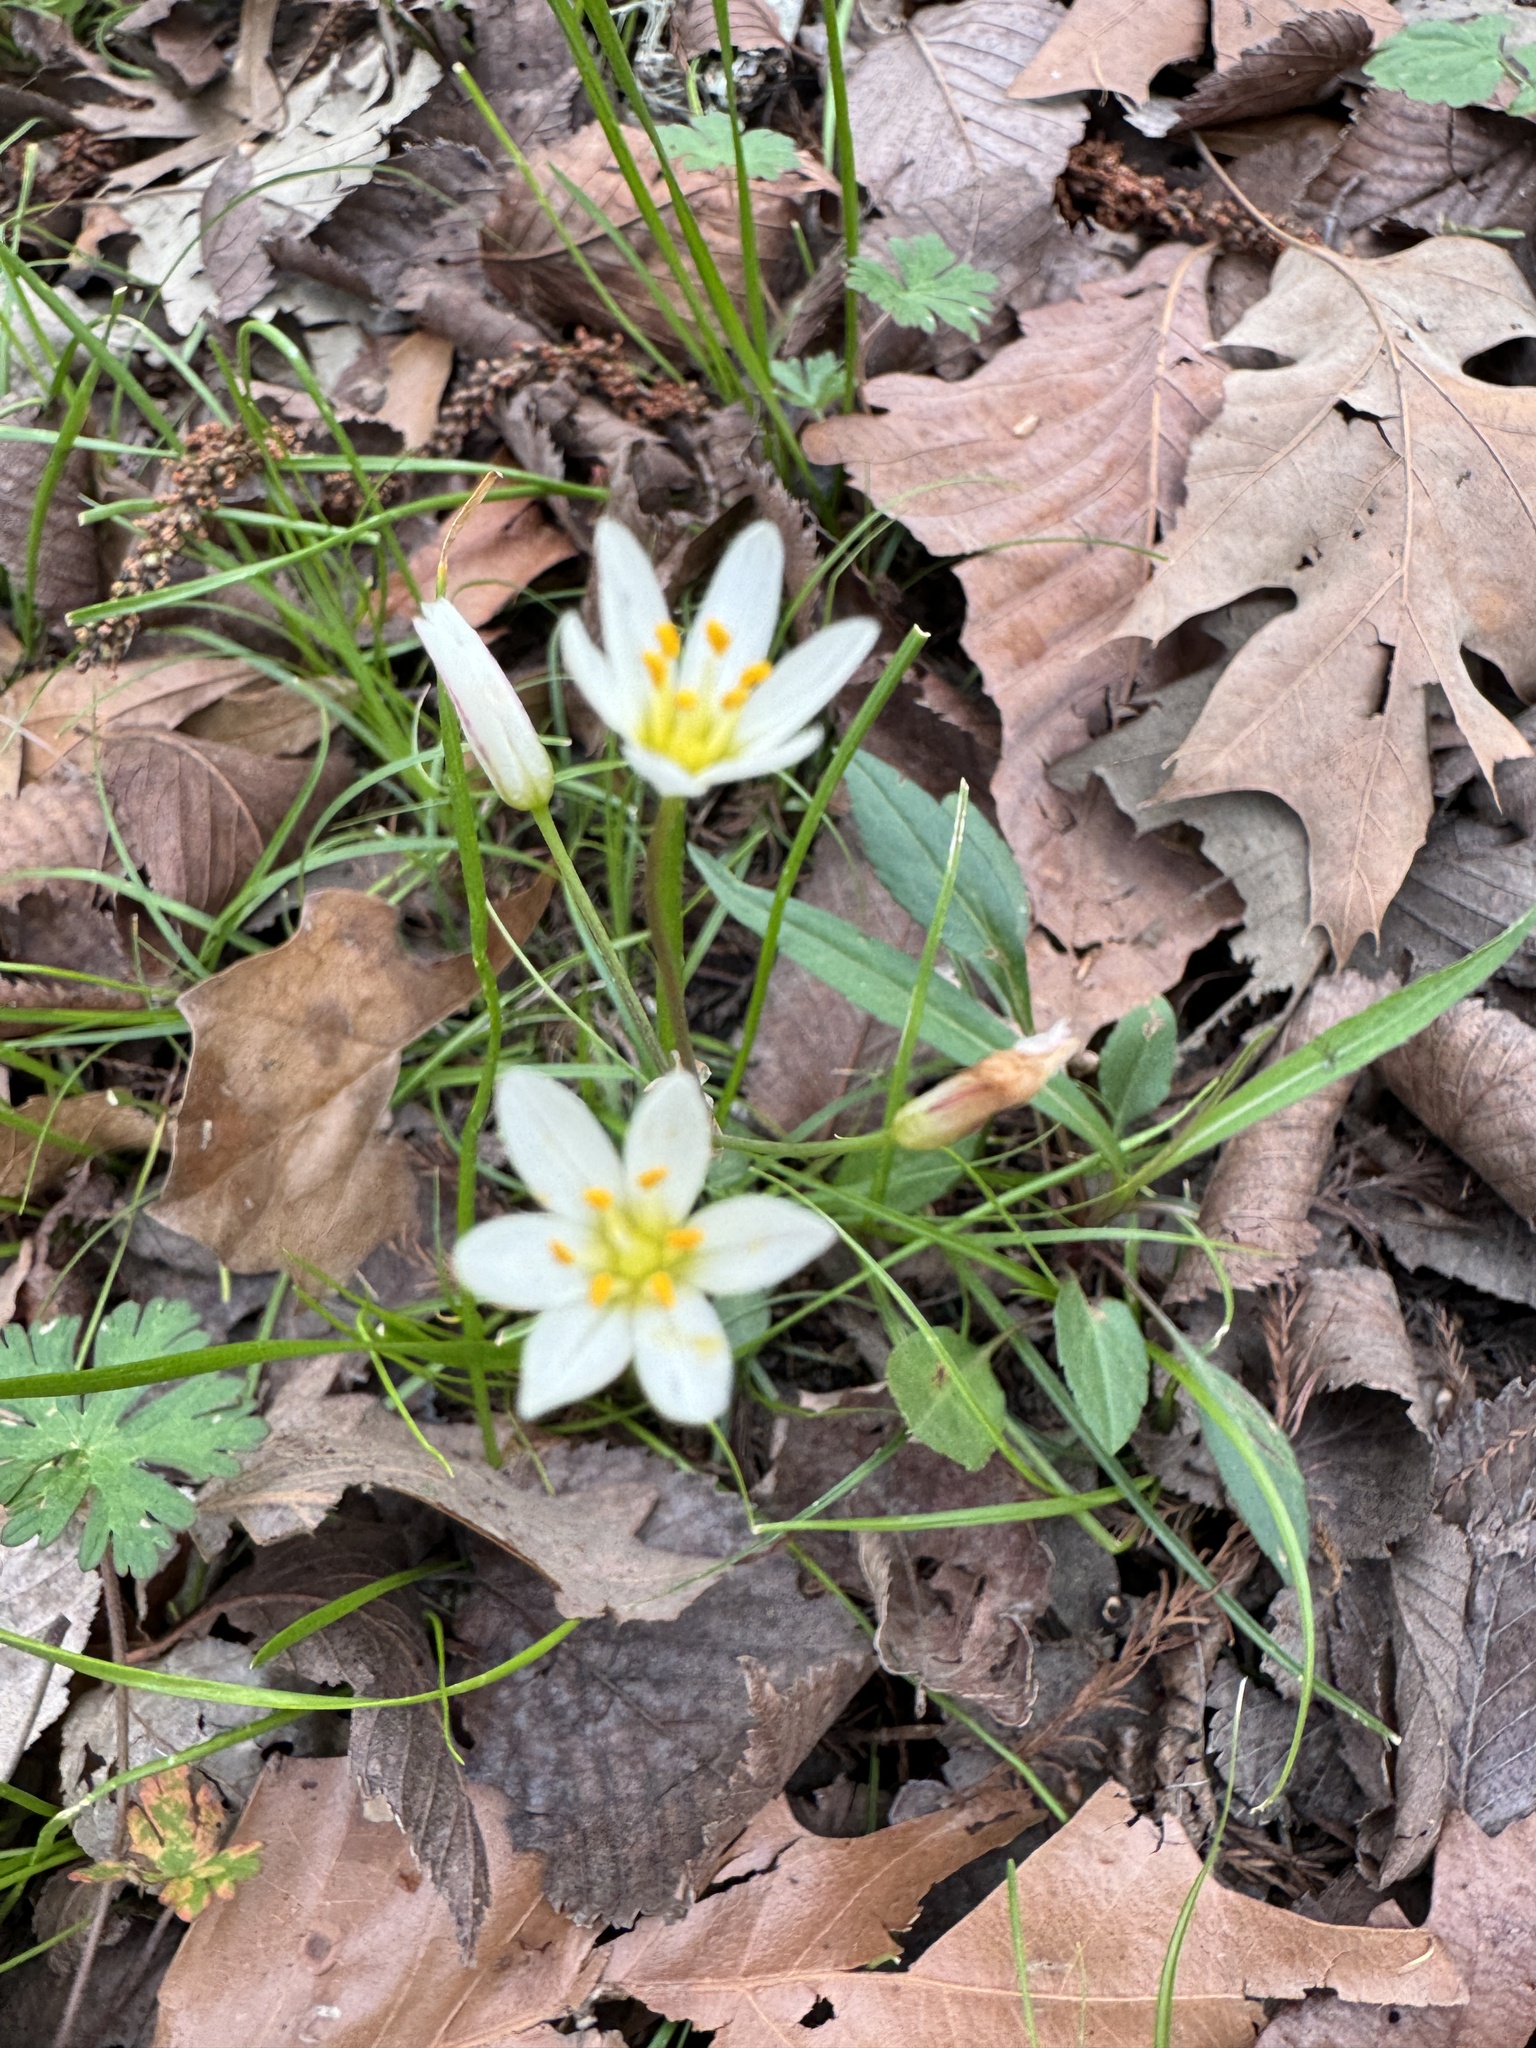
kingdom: Plantae
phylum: Tracheophyta
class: Liliopsida
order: Asparagales
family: Amaryllidaceae
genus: Nothoscordum
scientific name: Nothoscordum bivalve
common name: Crow-poison
